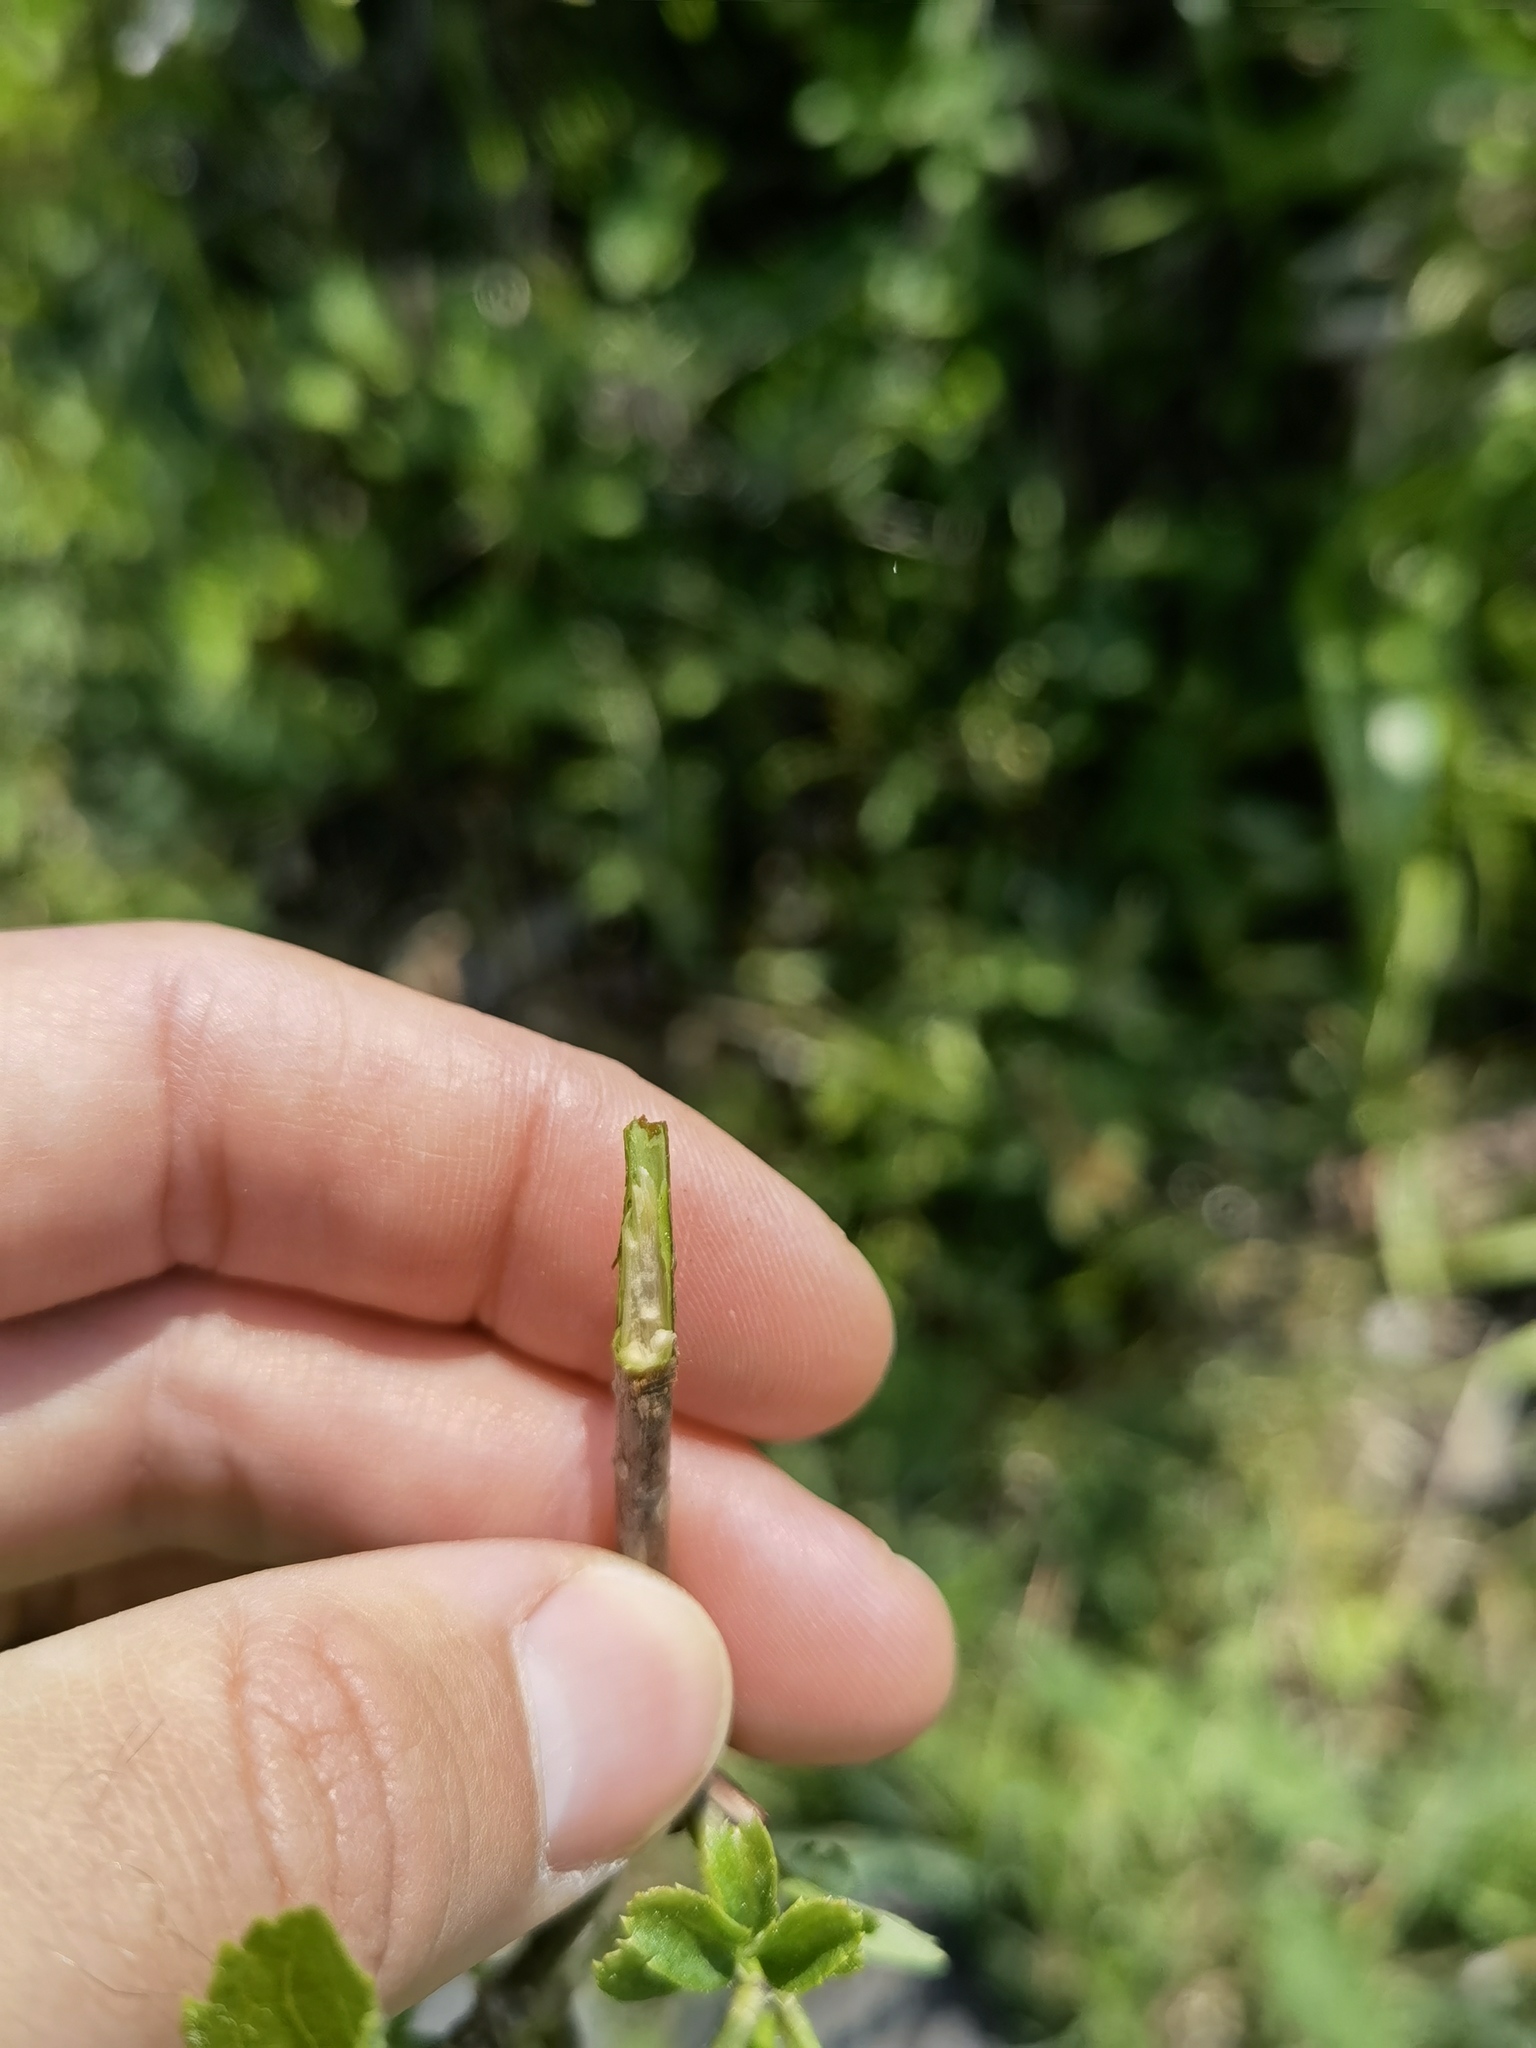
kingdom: Plantae
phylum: Tracheophyta
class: Magnoliopsida
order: Dipsacales
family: Viburnaceae
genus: Sambucus
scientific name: Sambucus nigra
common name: Elder
